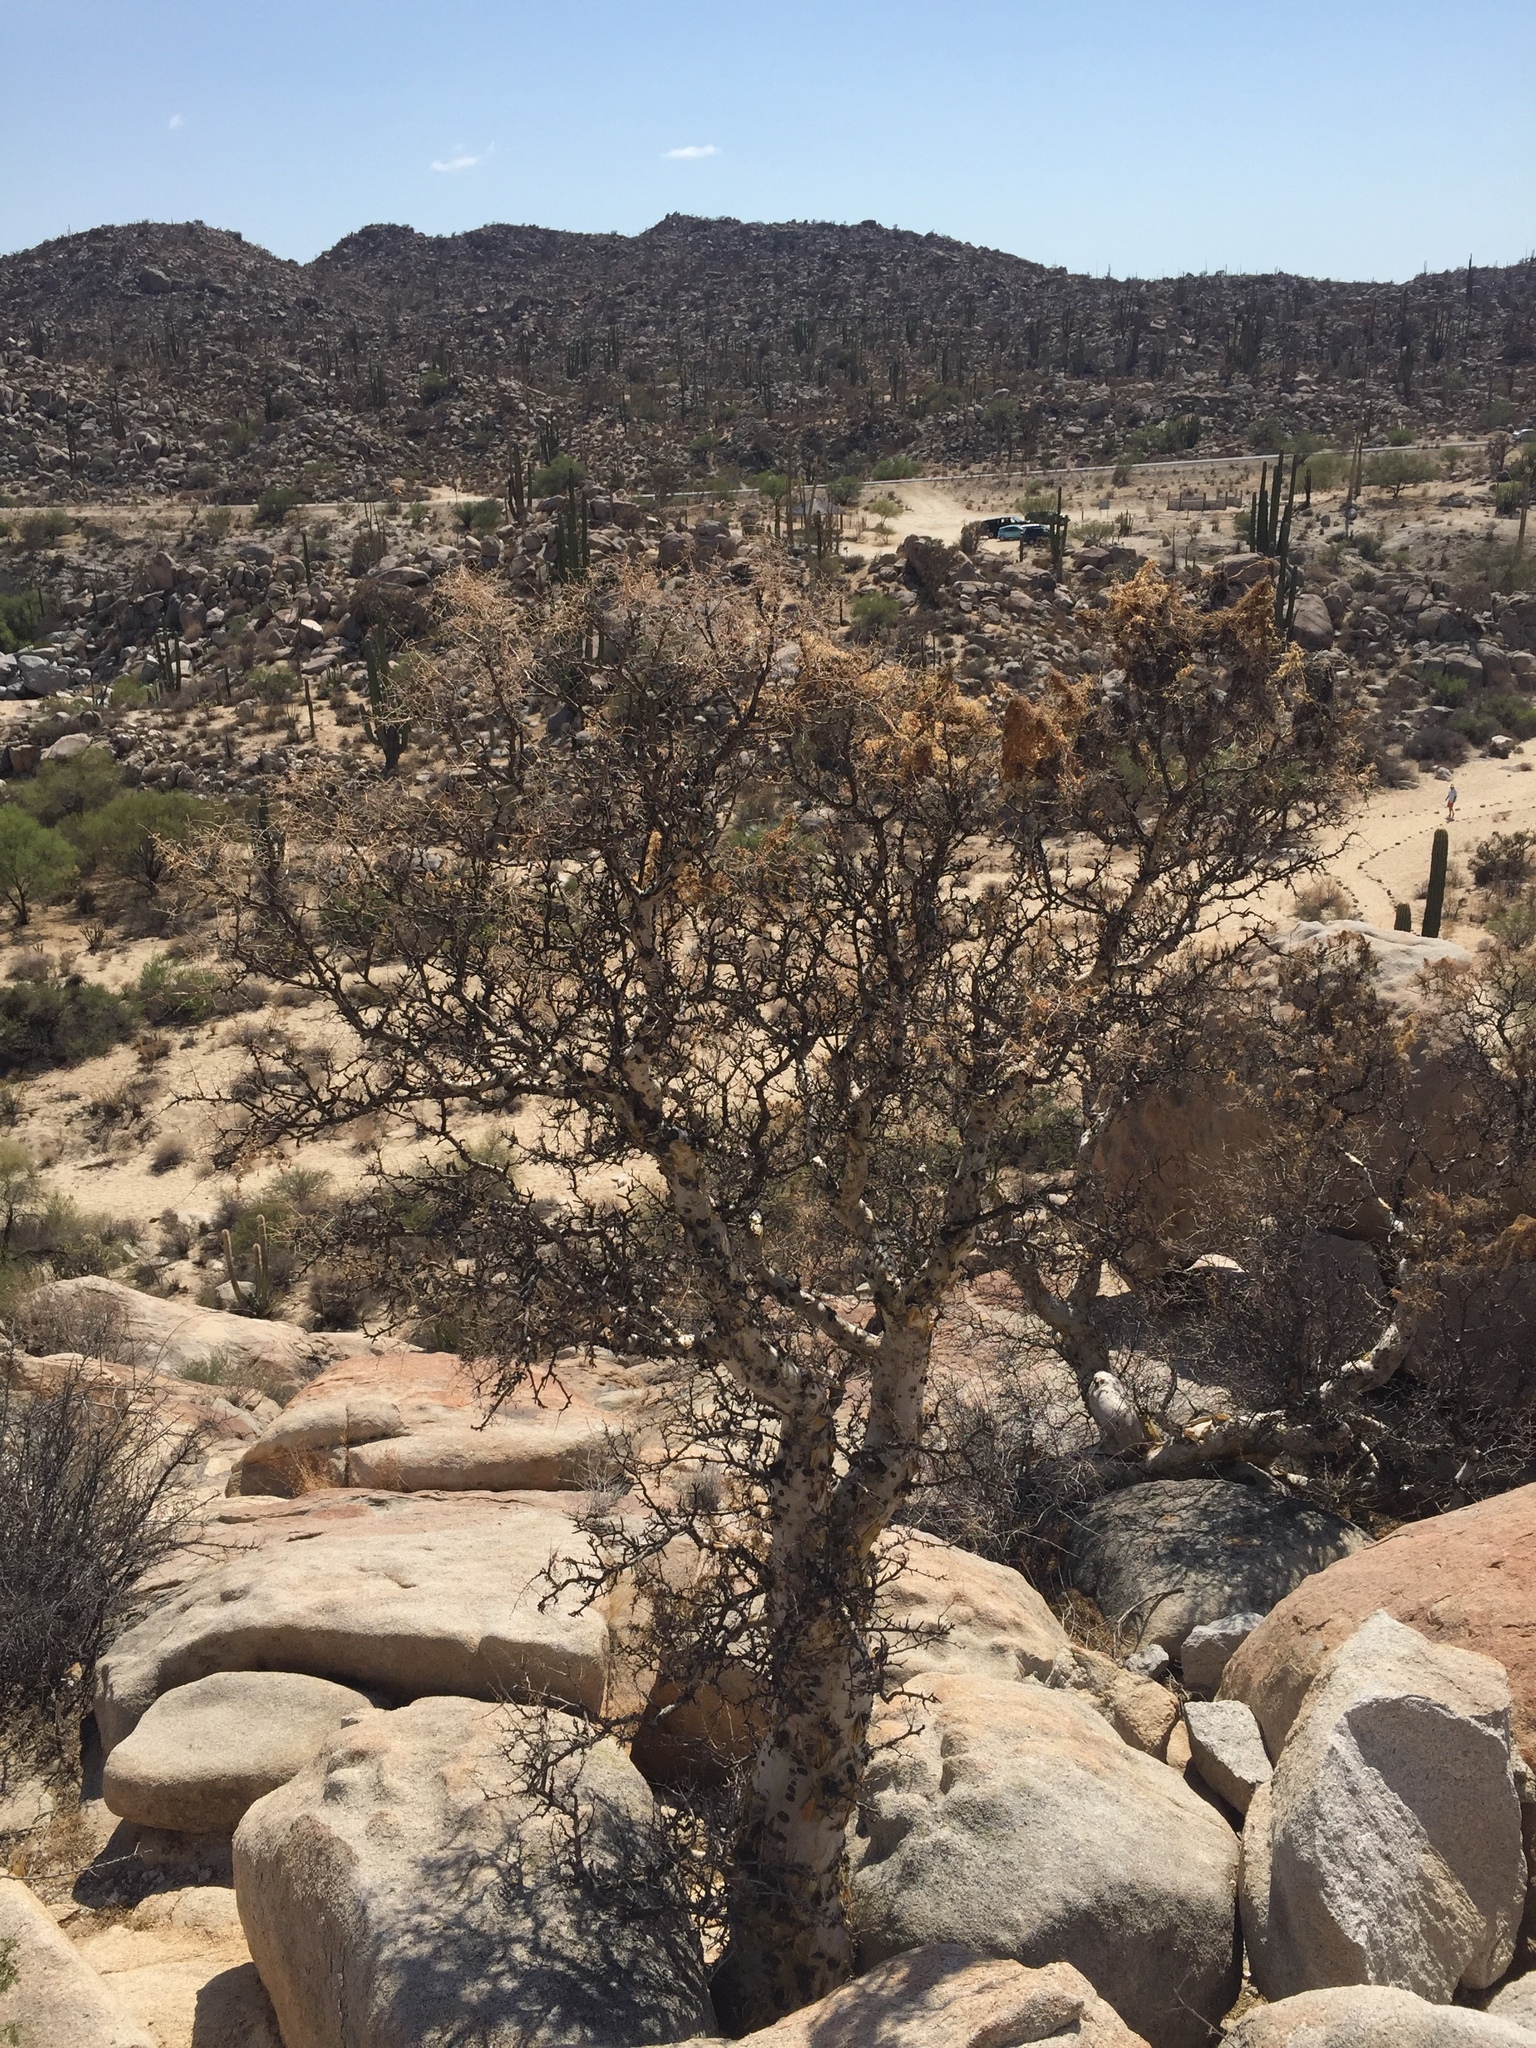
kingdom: Plantae
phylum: Tracheophyta
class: Magnoliopsida
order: Sapindales
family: Anacardiaceae
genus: Pachycormus
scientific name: Pachycormus discolor
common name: Succulent elephant trees
